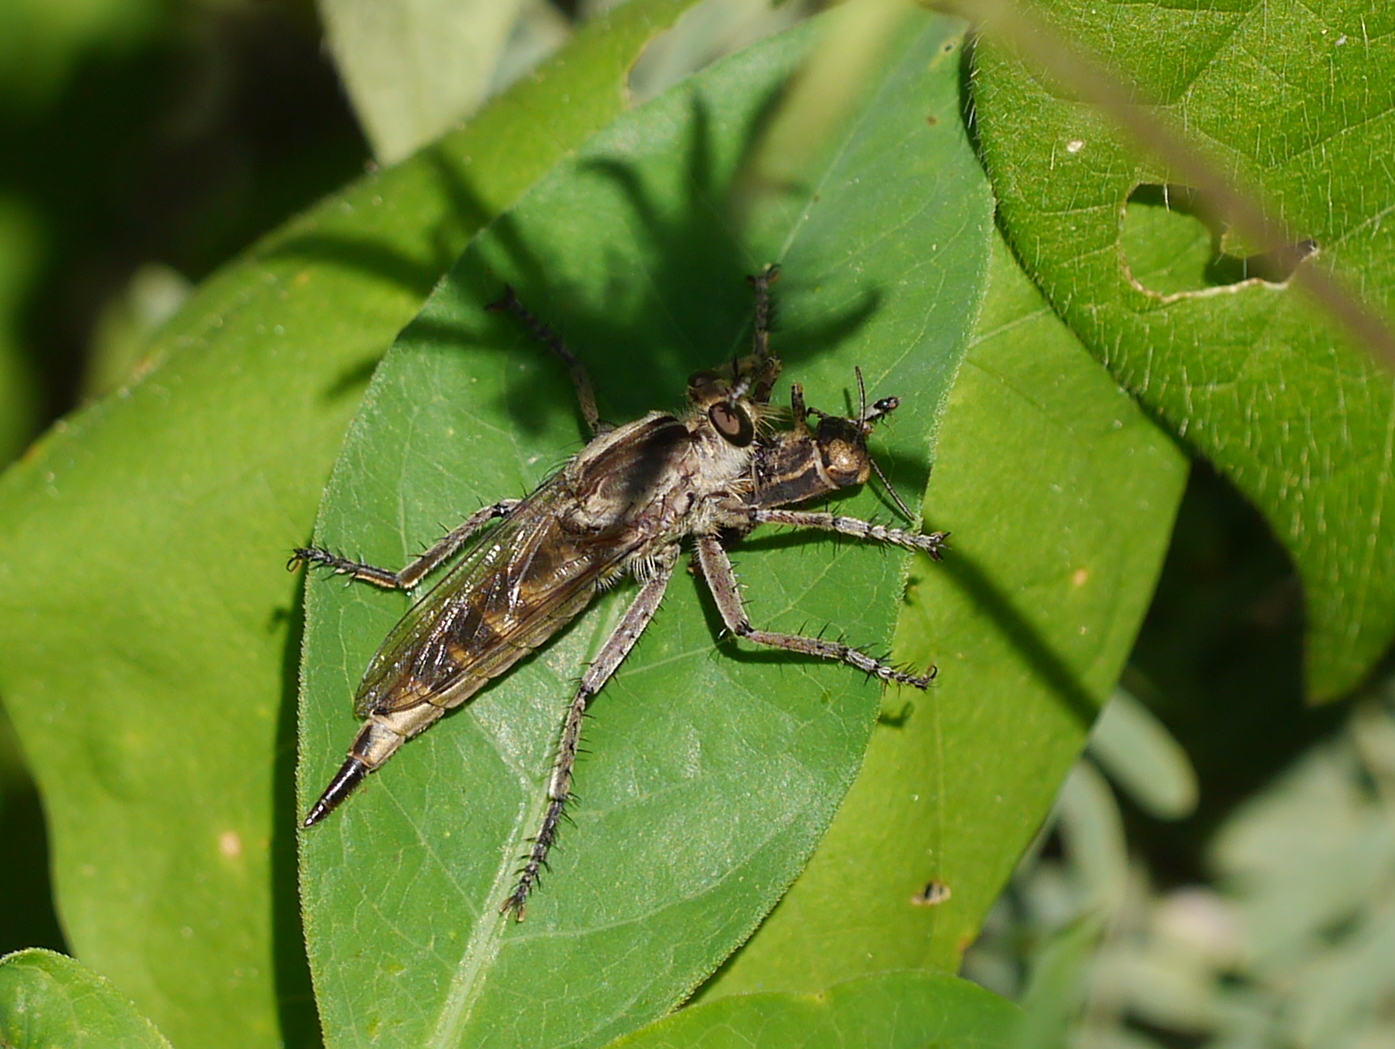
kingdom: Animalia
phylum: Arthropoda
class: Insecta
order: Diptera
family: Asilidae
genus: Triorla
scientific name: Triorla interrupta
